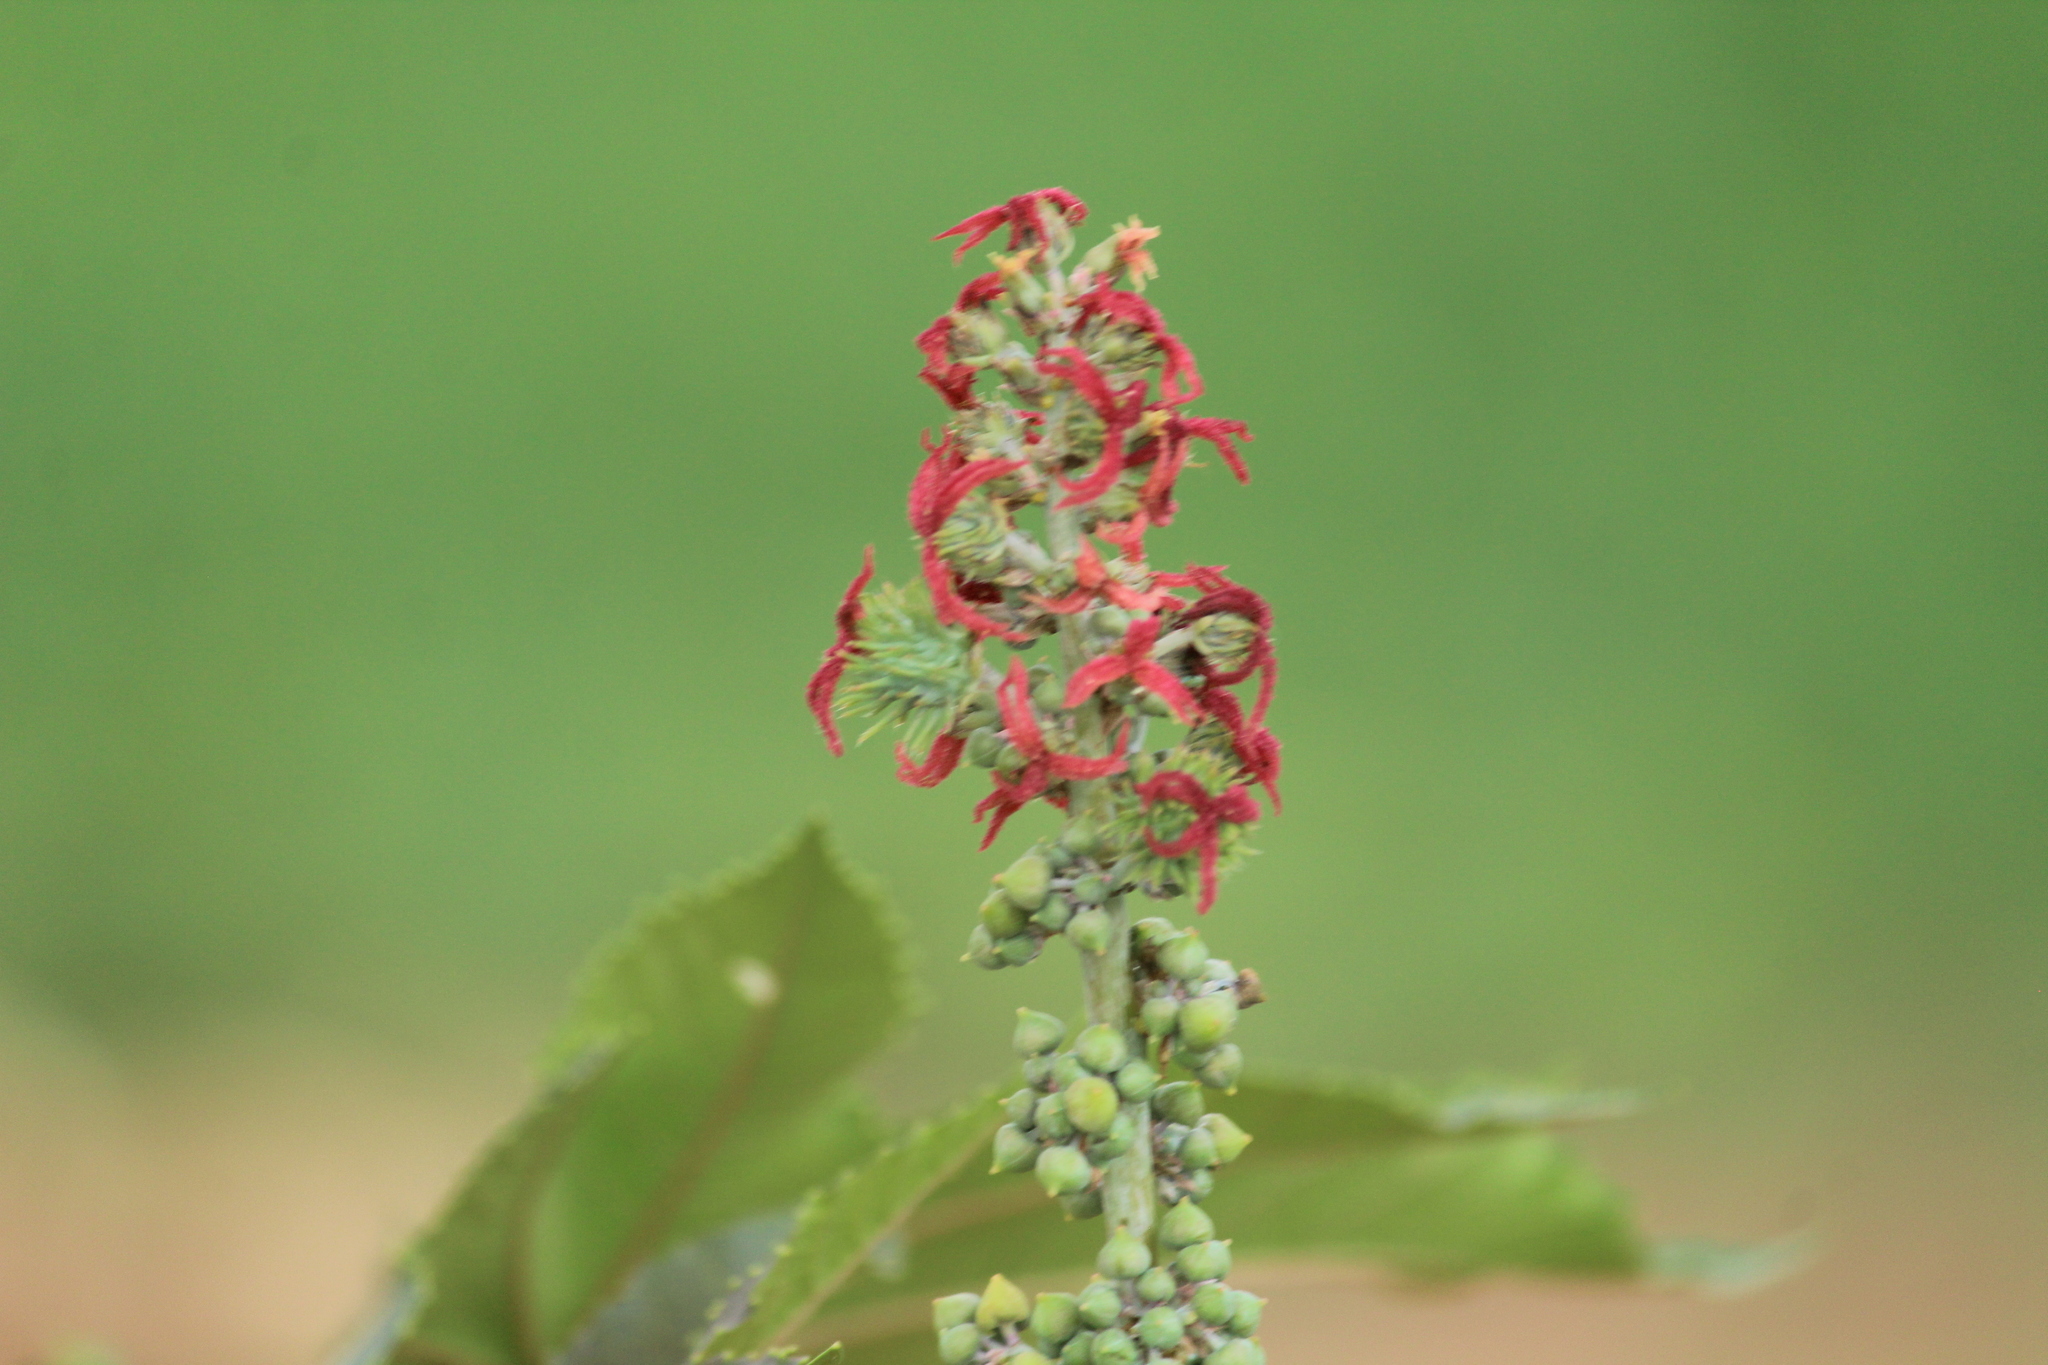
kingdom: Plantae
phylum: Tracheophyta
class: Magnoliopsida
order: Malpighiales
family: Euphorbiaceae
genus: Ricinus
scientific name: Ricinus communis
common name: Castor-oil-plant
